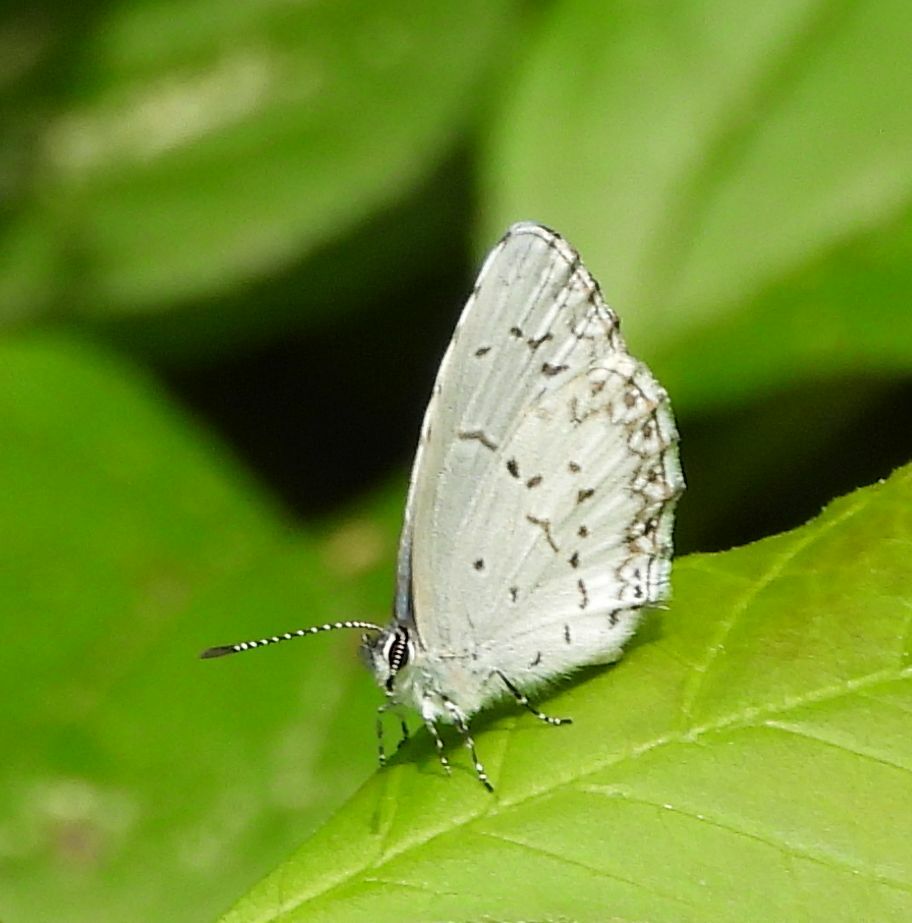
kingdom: Animalia
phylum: Arthropoda
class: Insecta
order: Lepidoptera
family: Lycaenidae
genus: Celastrina
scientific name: Celastrina lucia
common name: Lucia azure
